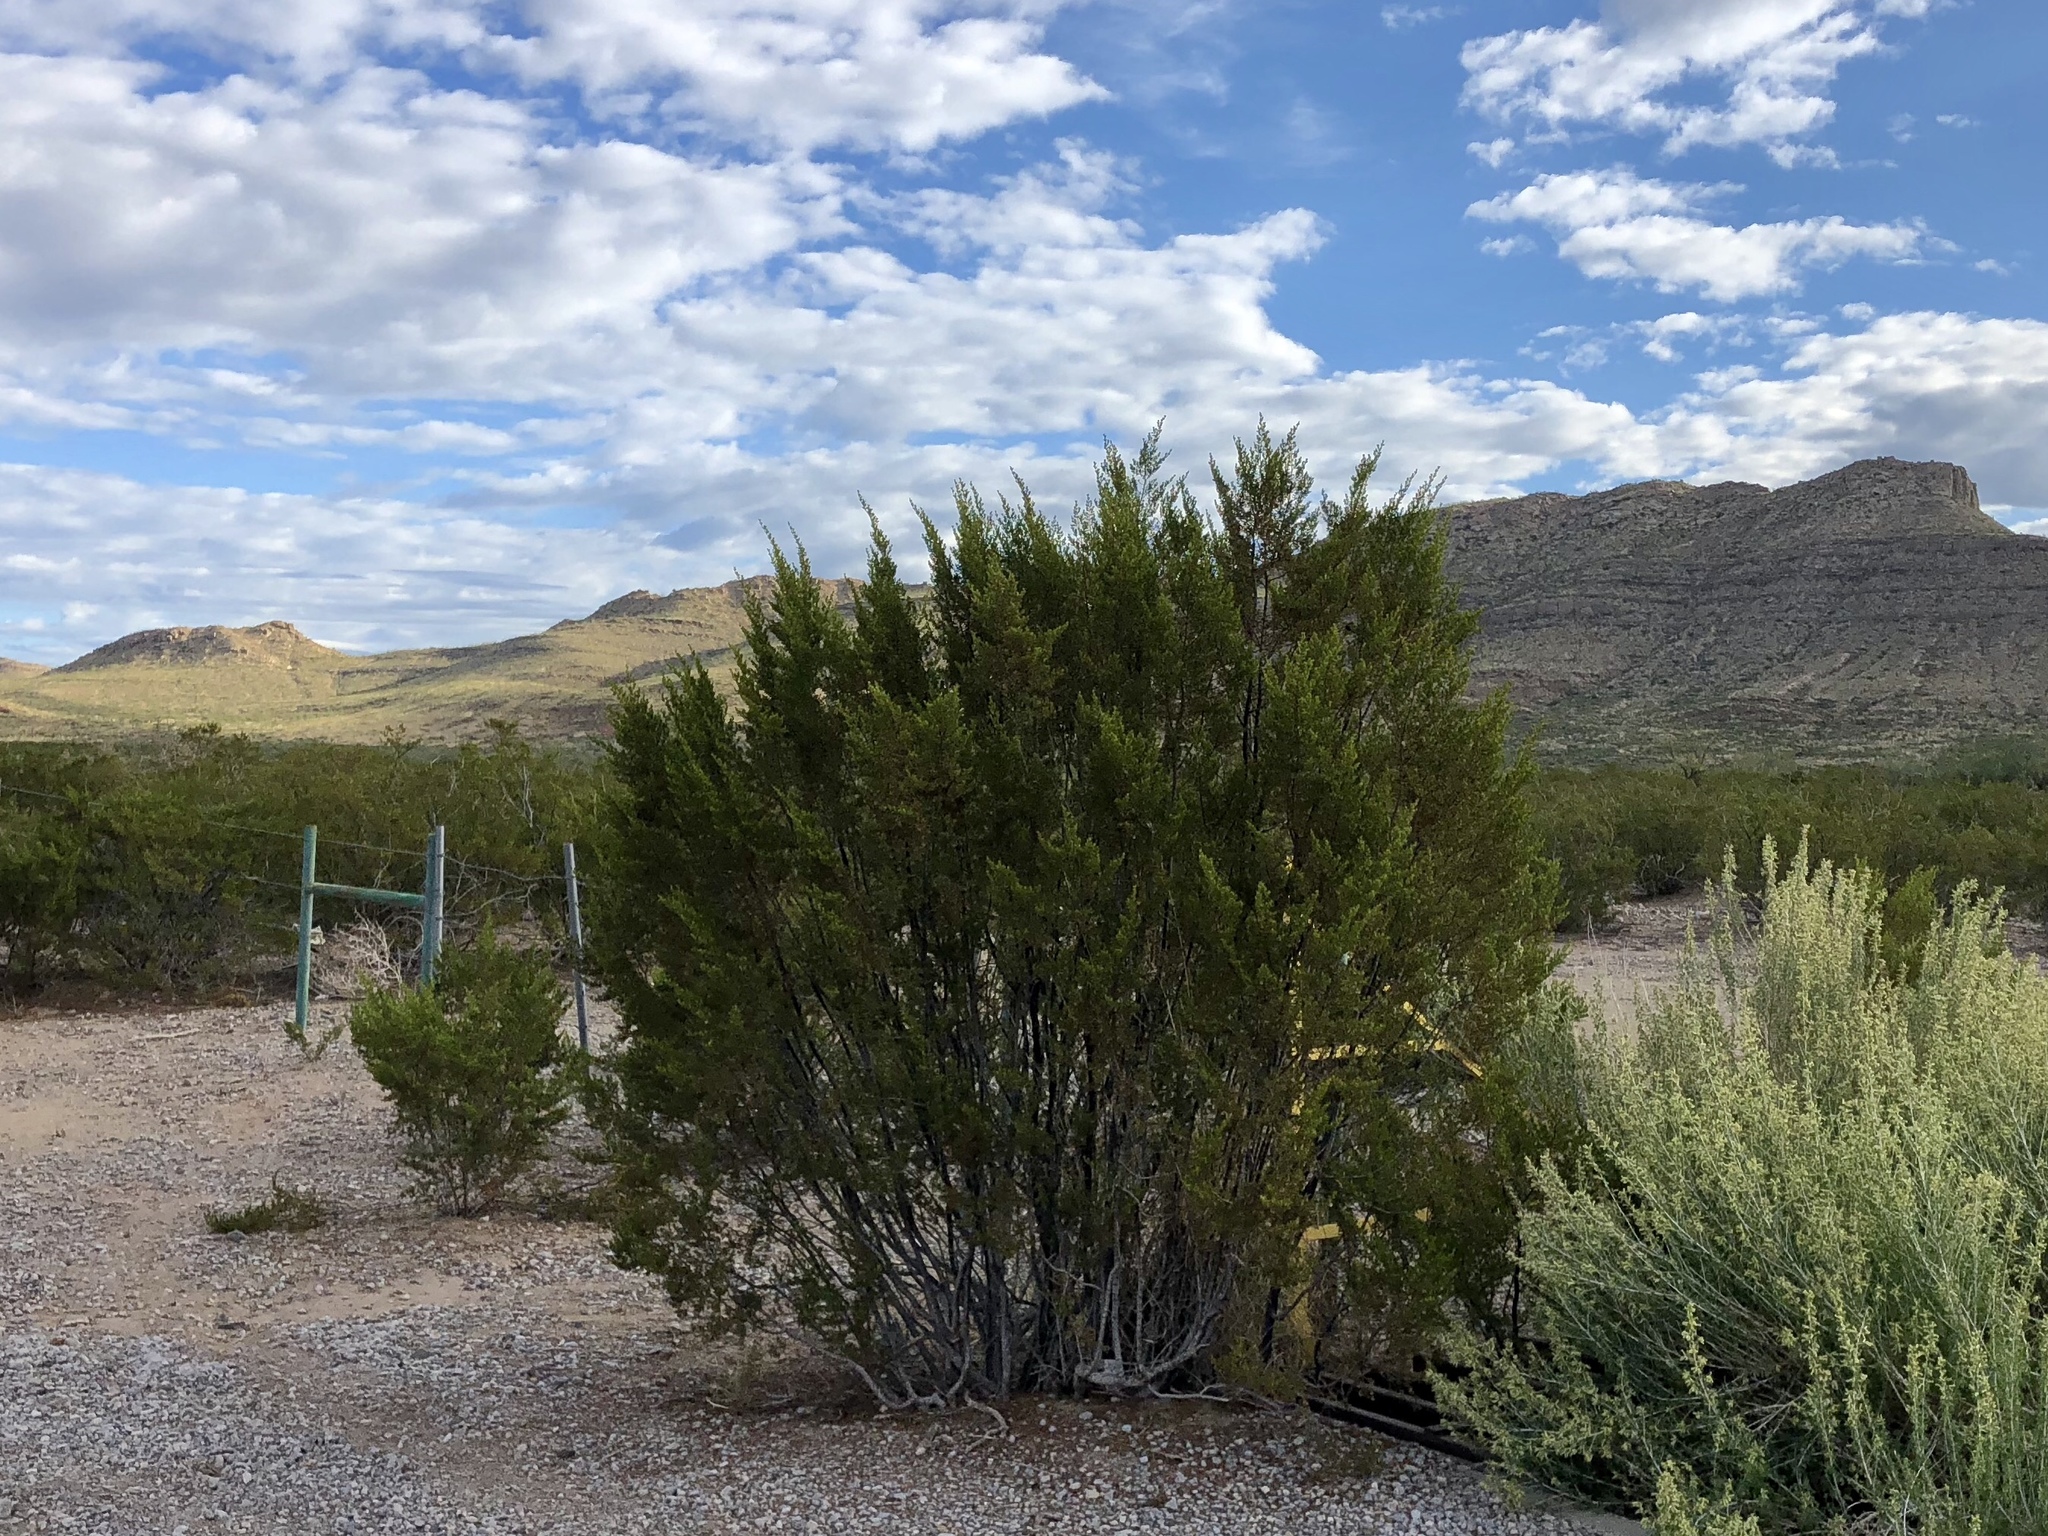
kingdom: Plantae
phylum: Tracheophyta
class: Magnoliopsida
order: Zygophyllales
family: Zygophyllaceae
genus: Larrea
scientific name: Larrea tridentata
